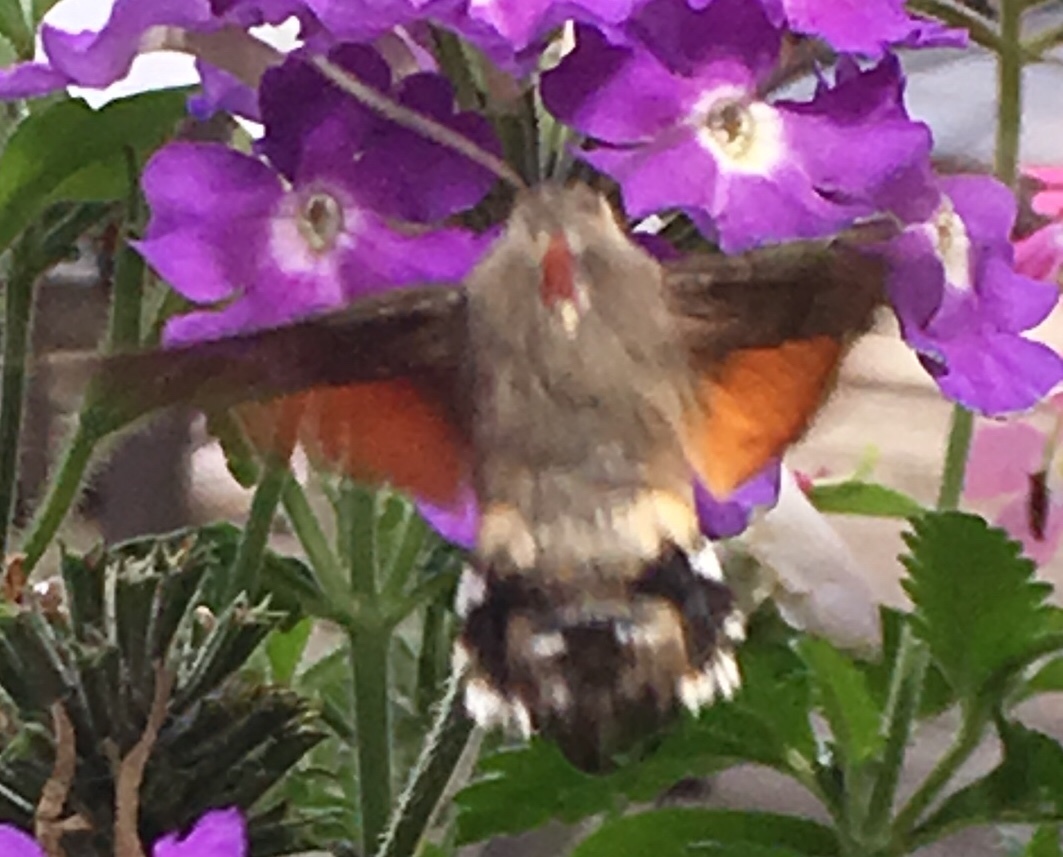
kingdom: Animalia
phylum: Arthropoda
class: Insecta
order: Lepidoptera
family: Sphingidae
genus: Macroglossum
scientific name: Macroglossum stellatarum
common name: Humming-bird hawk-moth
